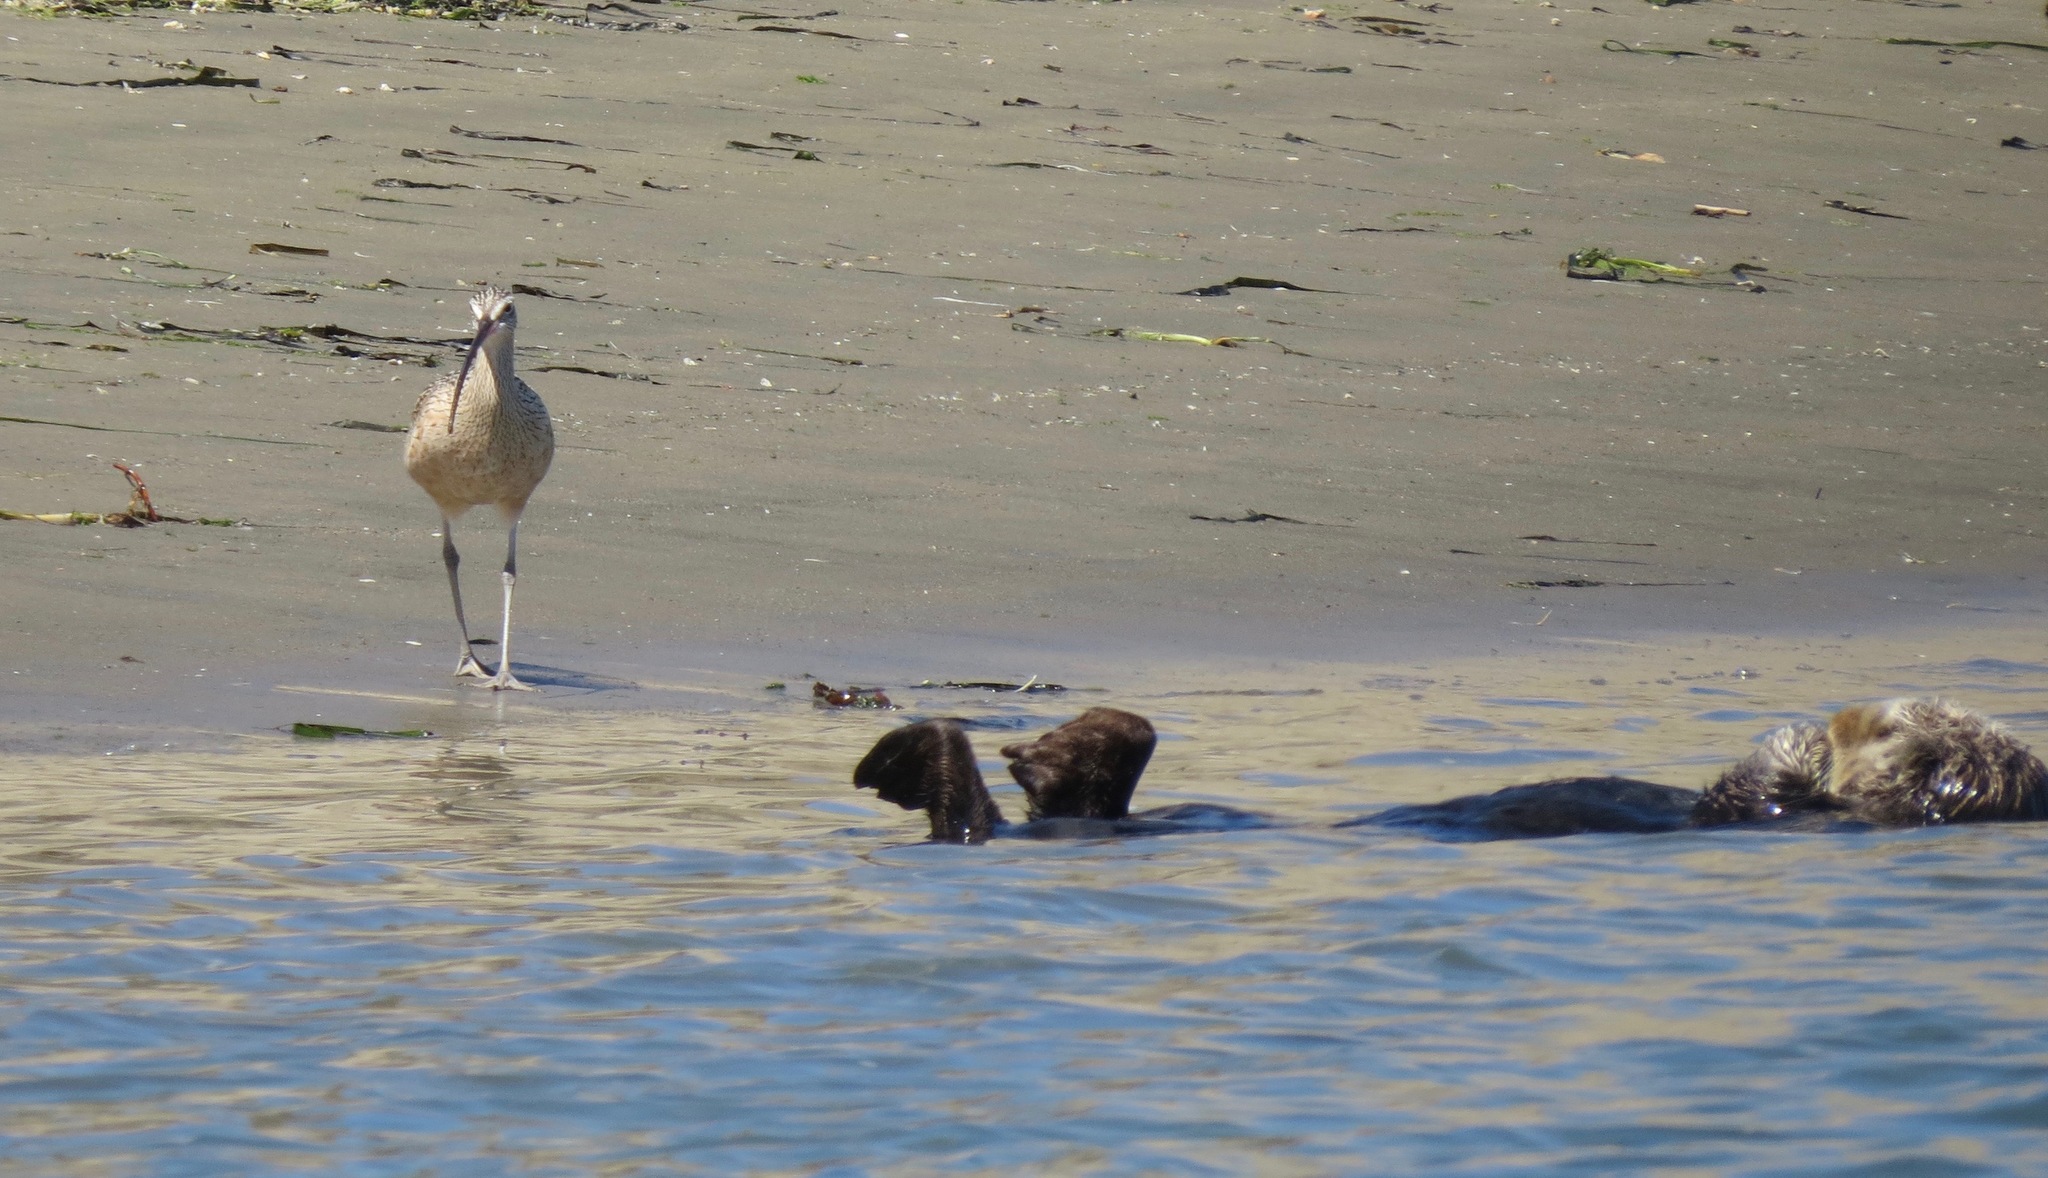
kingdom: Animalia
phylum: Chordata
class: Aves
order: Charadriiformes
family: Scolopacidae
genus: Numenius
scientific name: Numenius americanus
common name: Long-billed curlew
